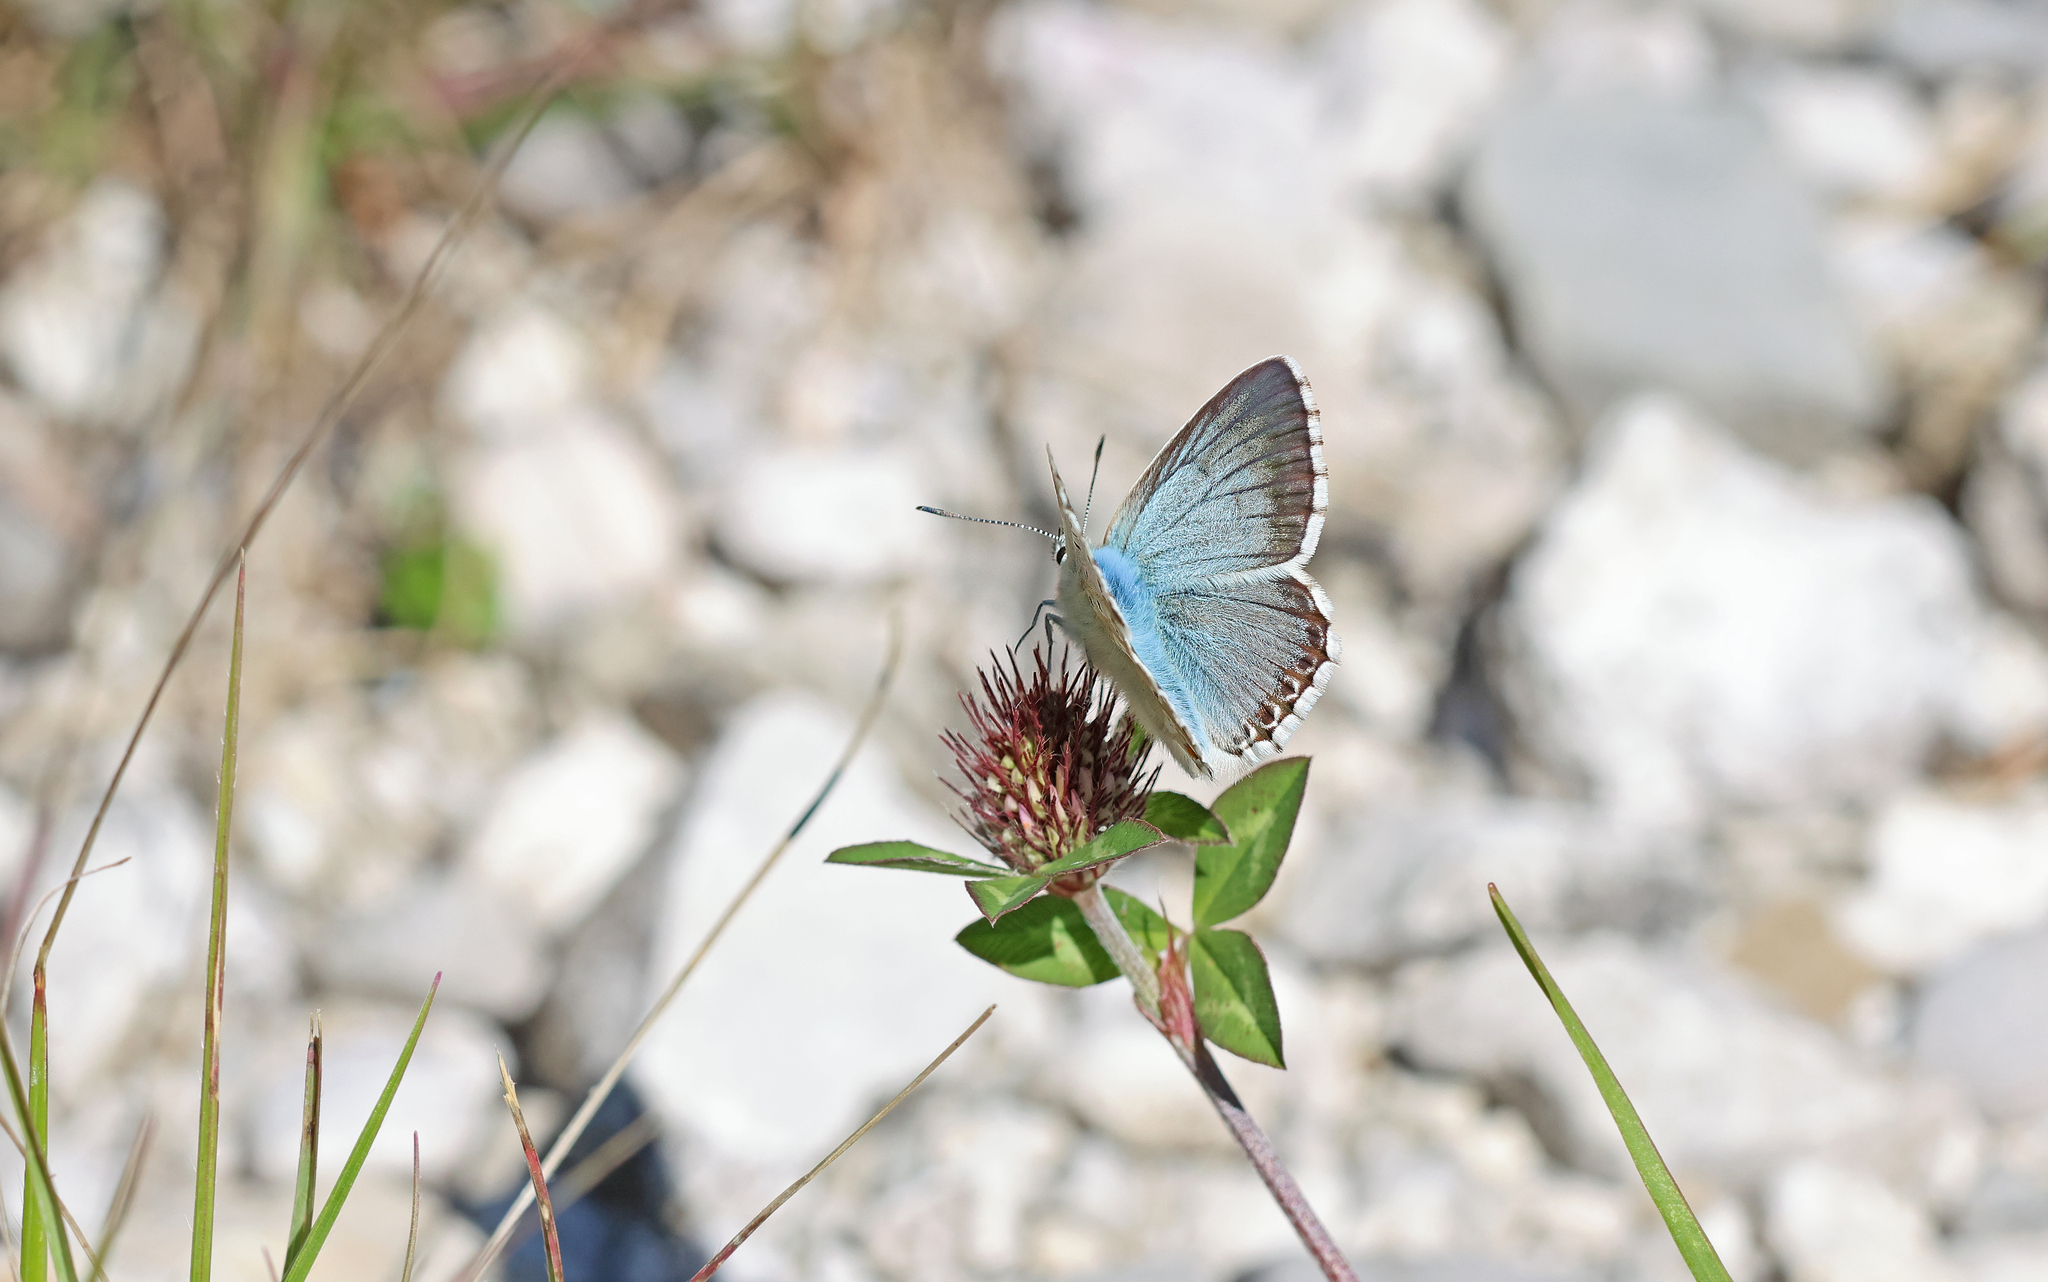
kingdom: Animalia
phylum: Arthropoda
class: Insecta
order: Lepidoptera
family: Lycaenidae
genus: Lysandra
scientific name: Lysandra coridon
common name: Chalkhill blue
